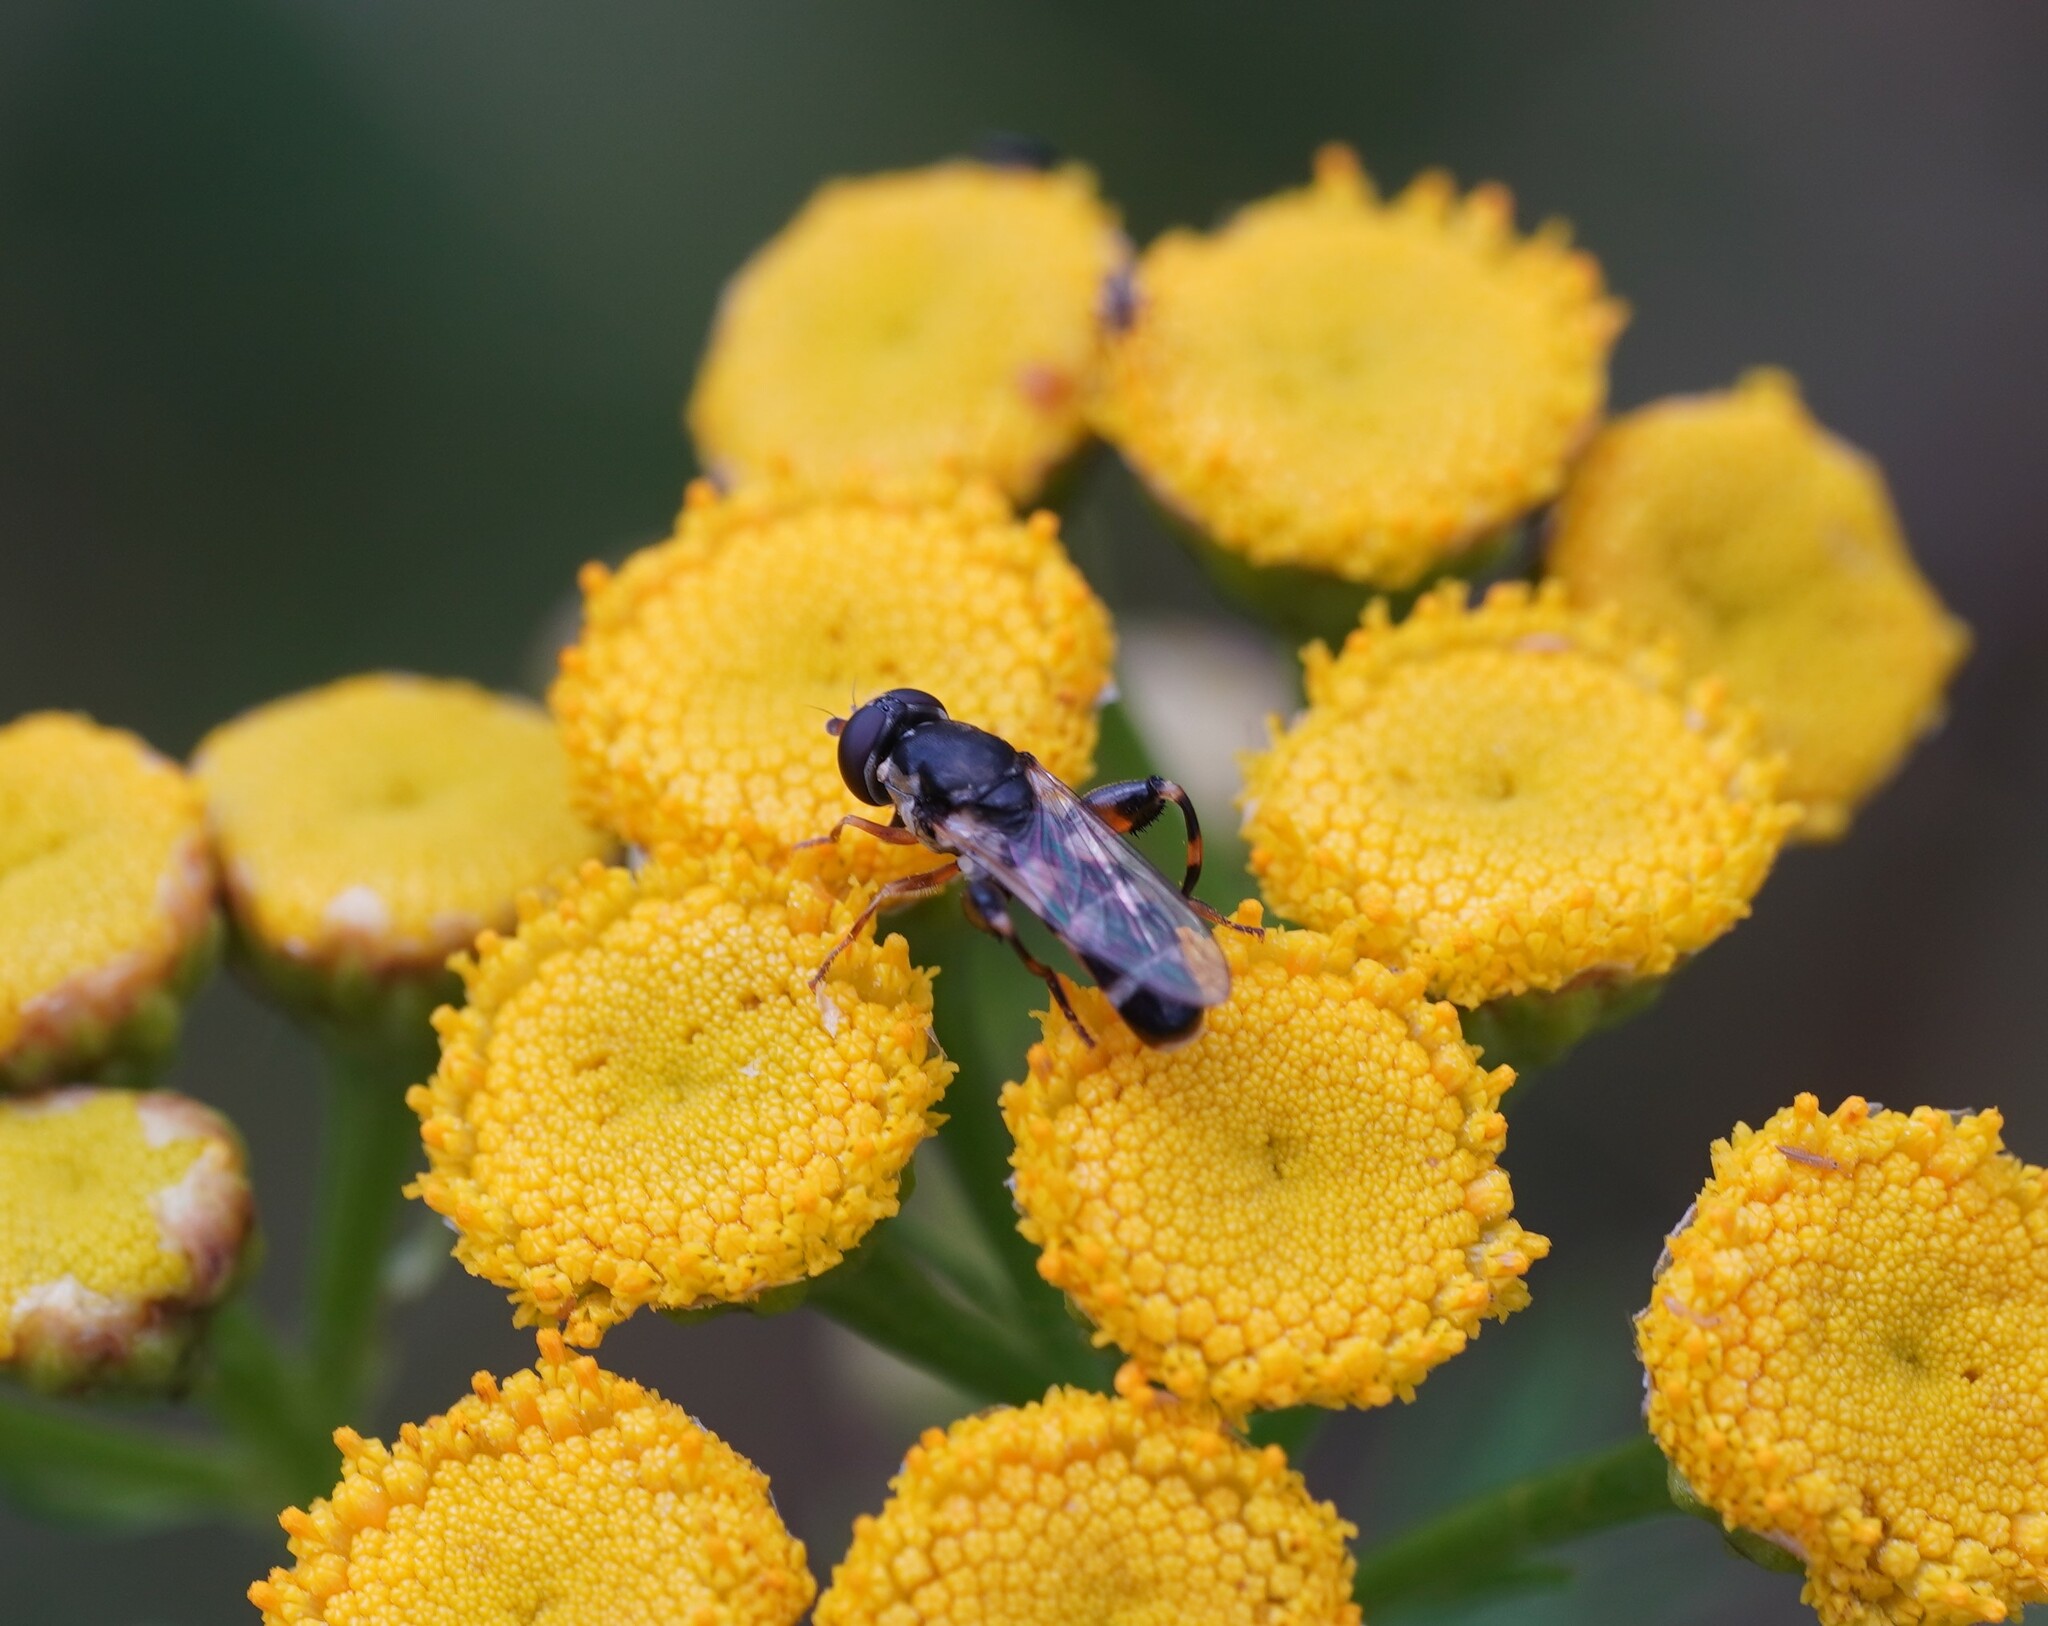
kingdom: Animalia
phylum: Arthropoda
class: Insecta
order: Diptera
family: Syrphidae
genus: Syritta
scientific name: Syritta pipiens
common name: Hover fly
